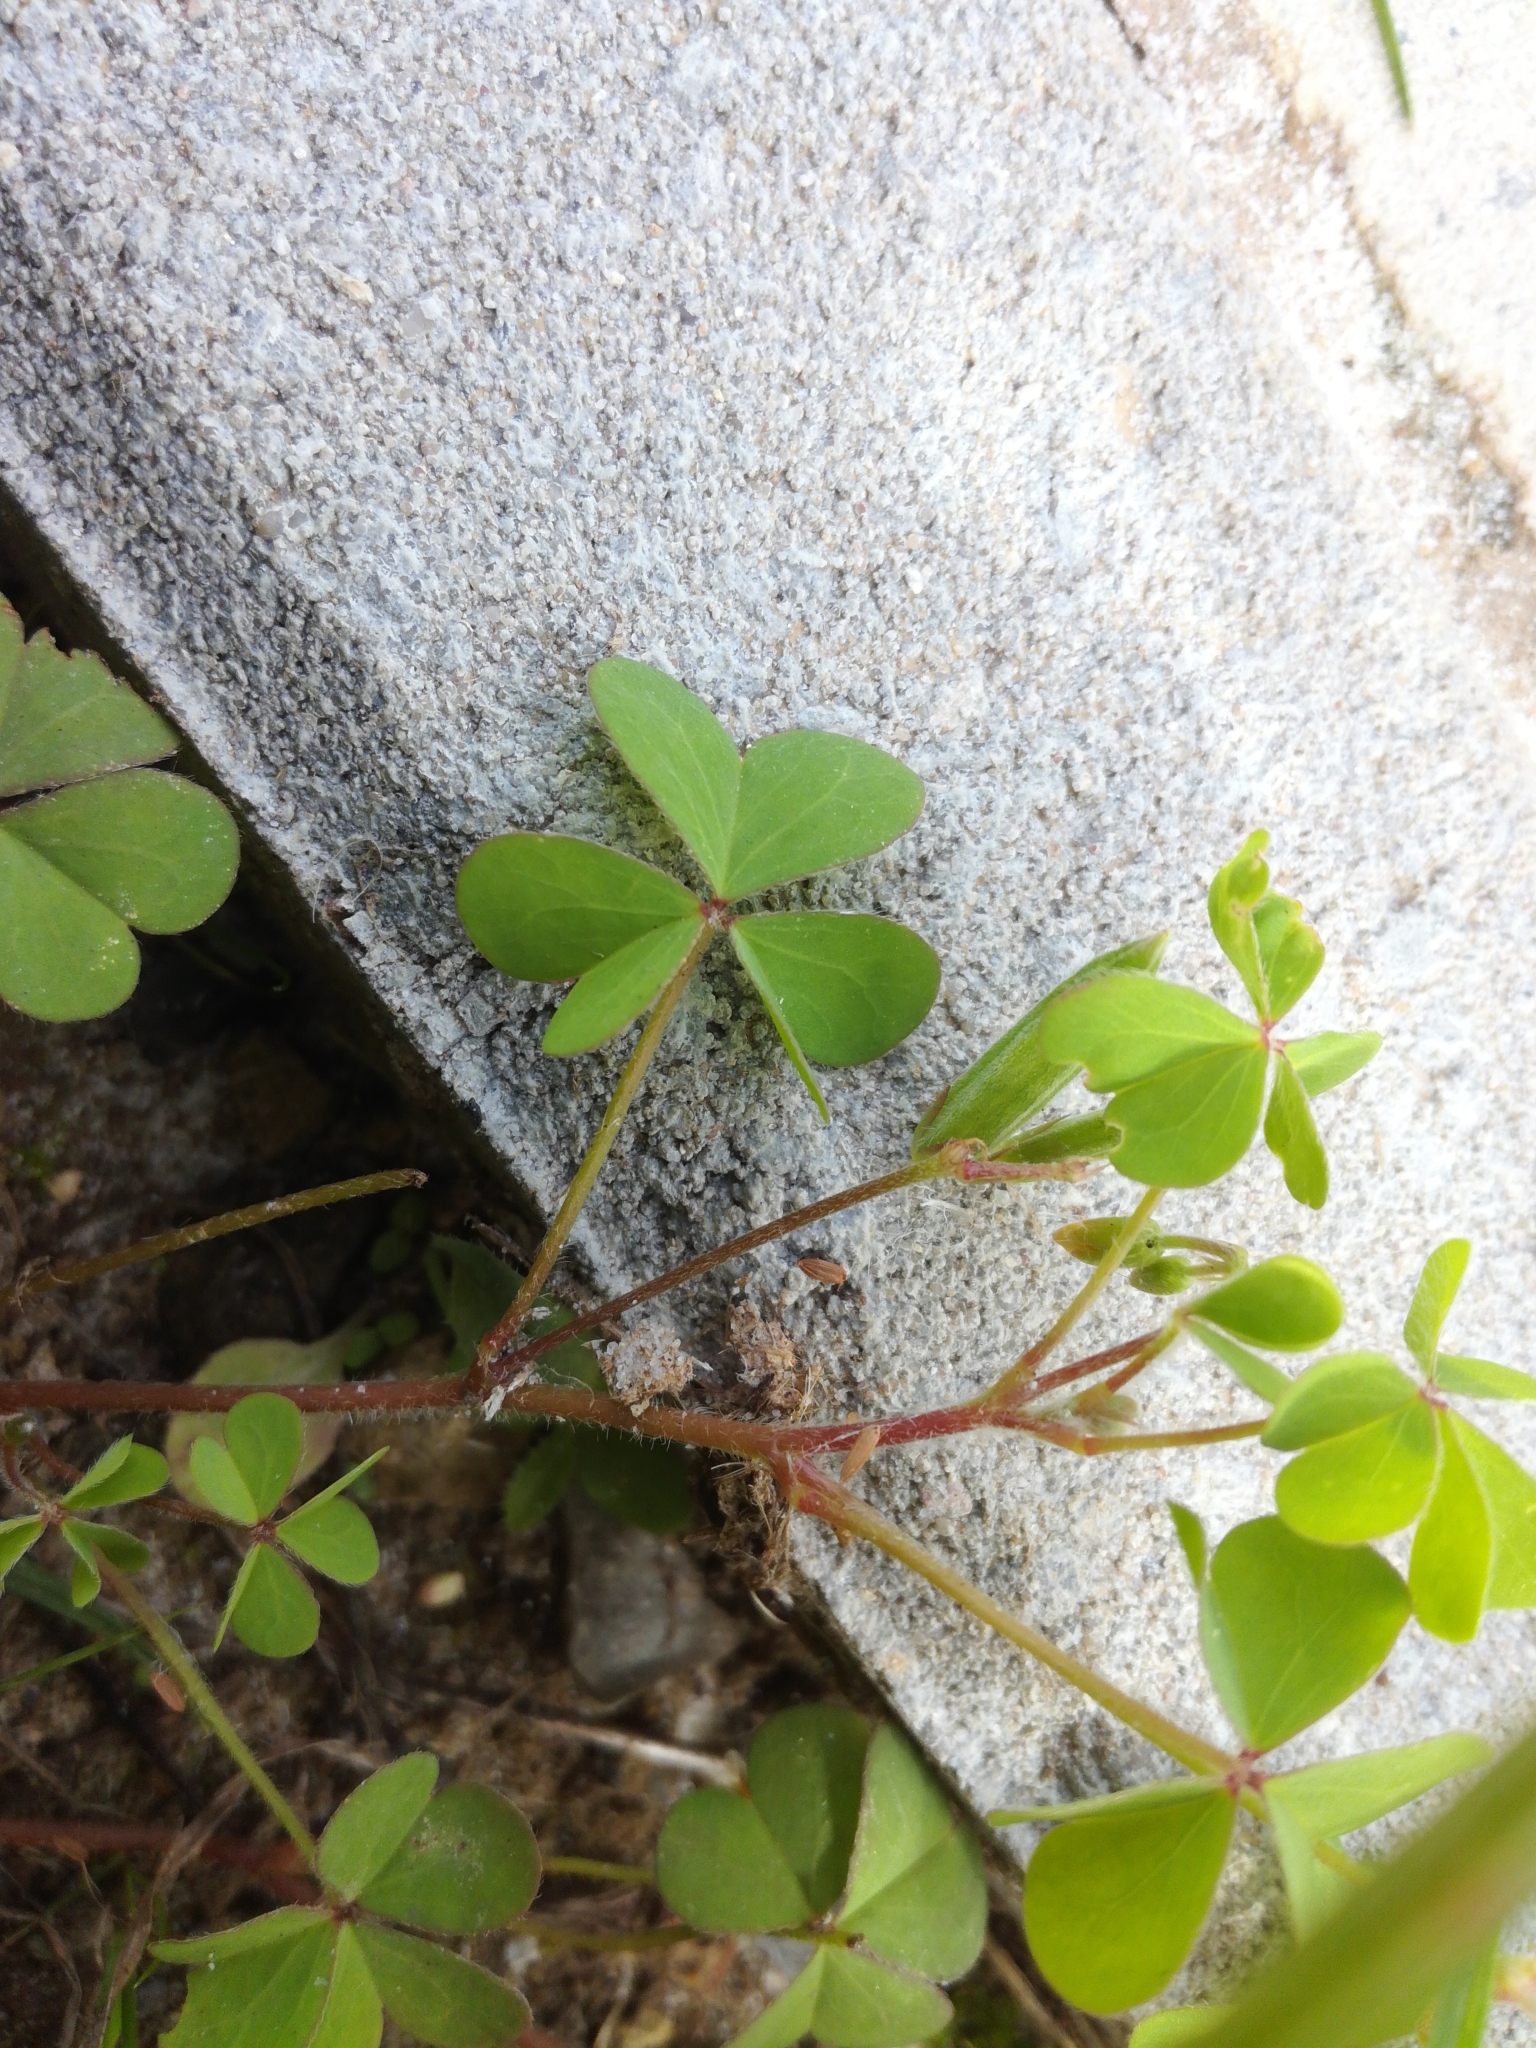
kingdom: Plantae
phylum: Tracheophyta
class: Magnoliopsida
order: Oxalidales
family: Oxalidaceae
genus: Oxalis
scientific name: Oxalis corniculata
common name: Procumbent yellow-sorrel
